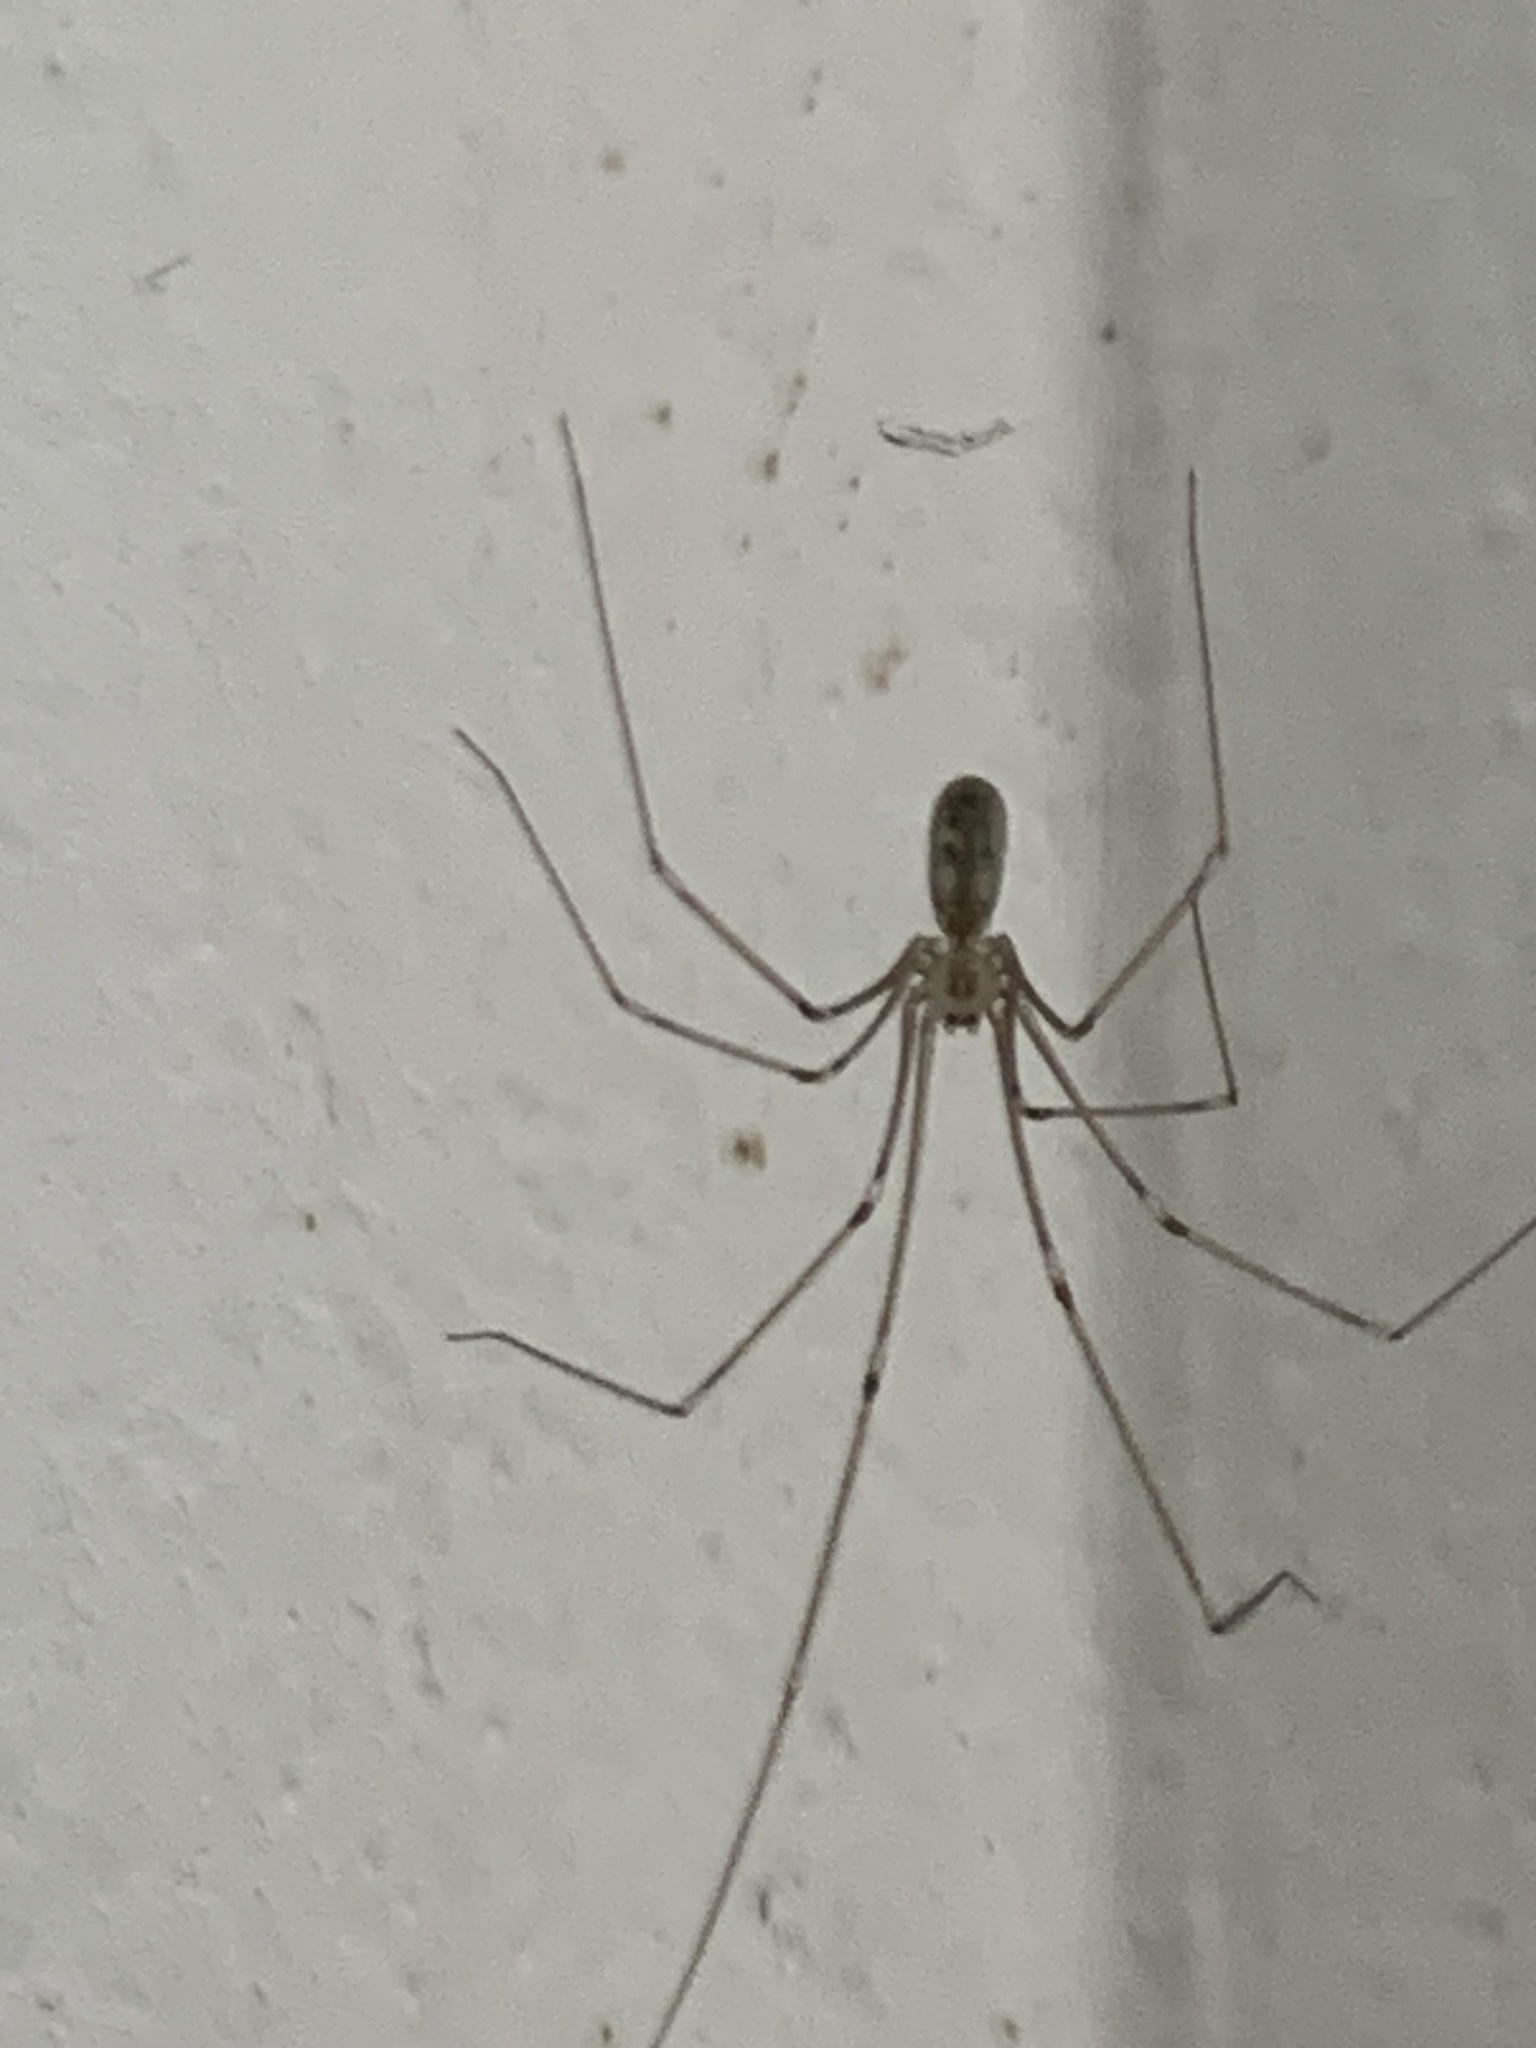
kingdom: Animalia
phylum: Arthropoda
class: Arachnida
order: Araneae
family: Pholcidae
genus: Pholcus
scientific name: Pholcus phalangioides
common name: Longbodied cellar spider
